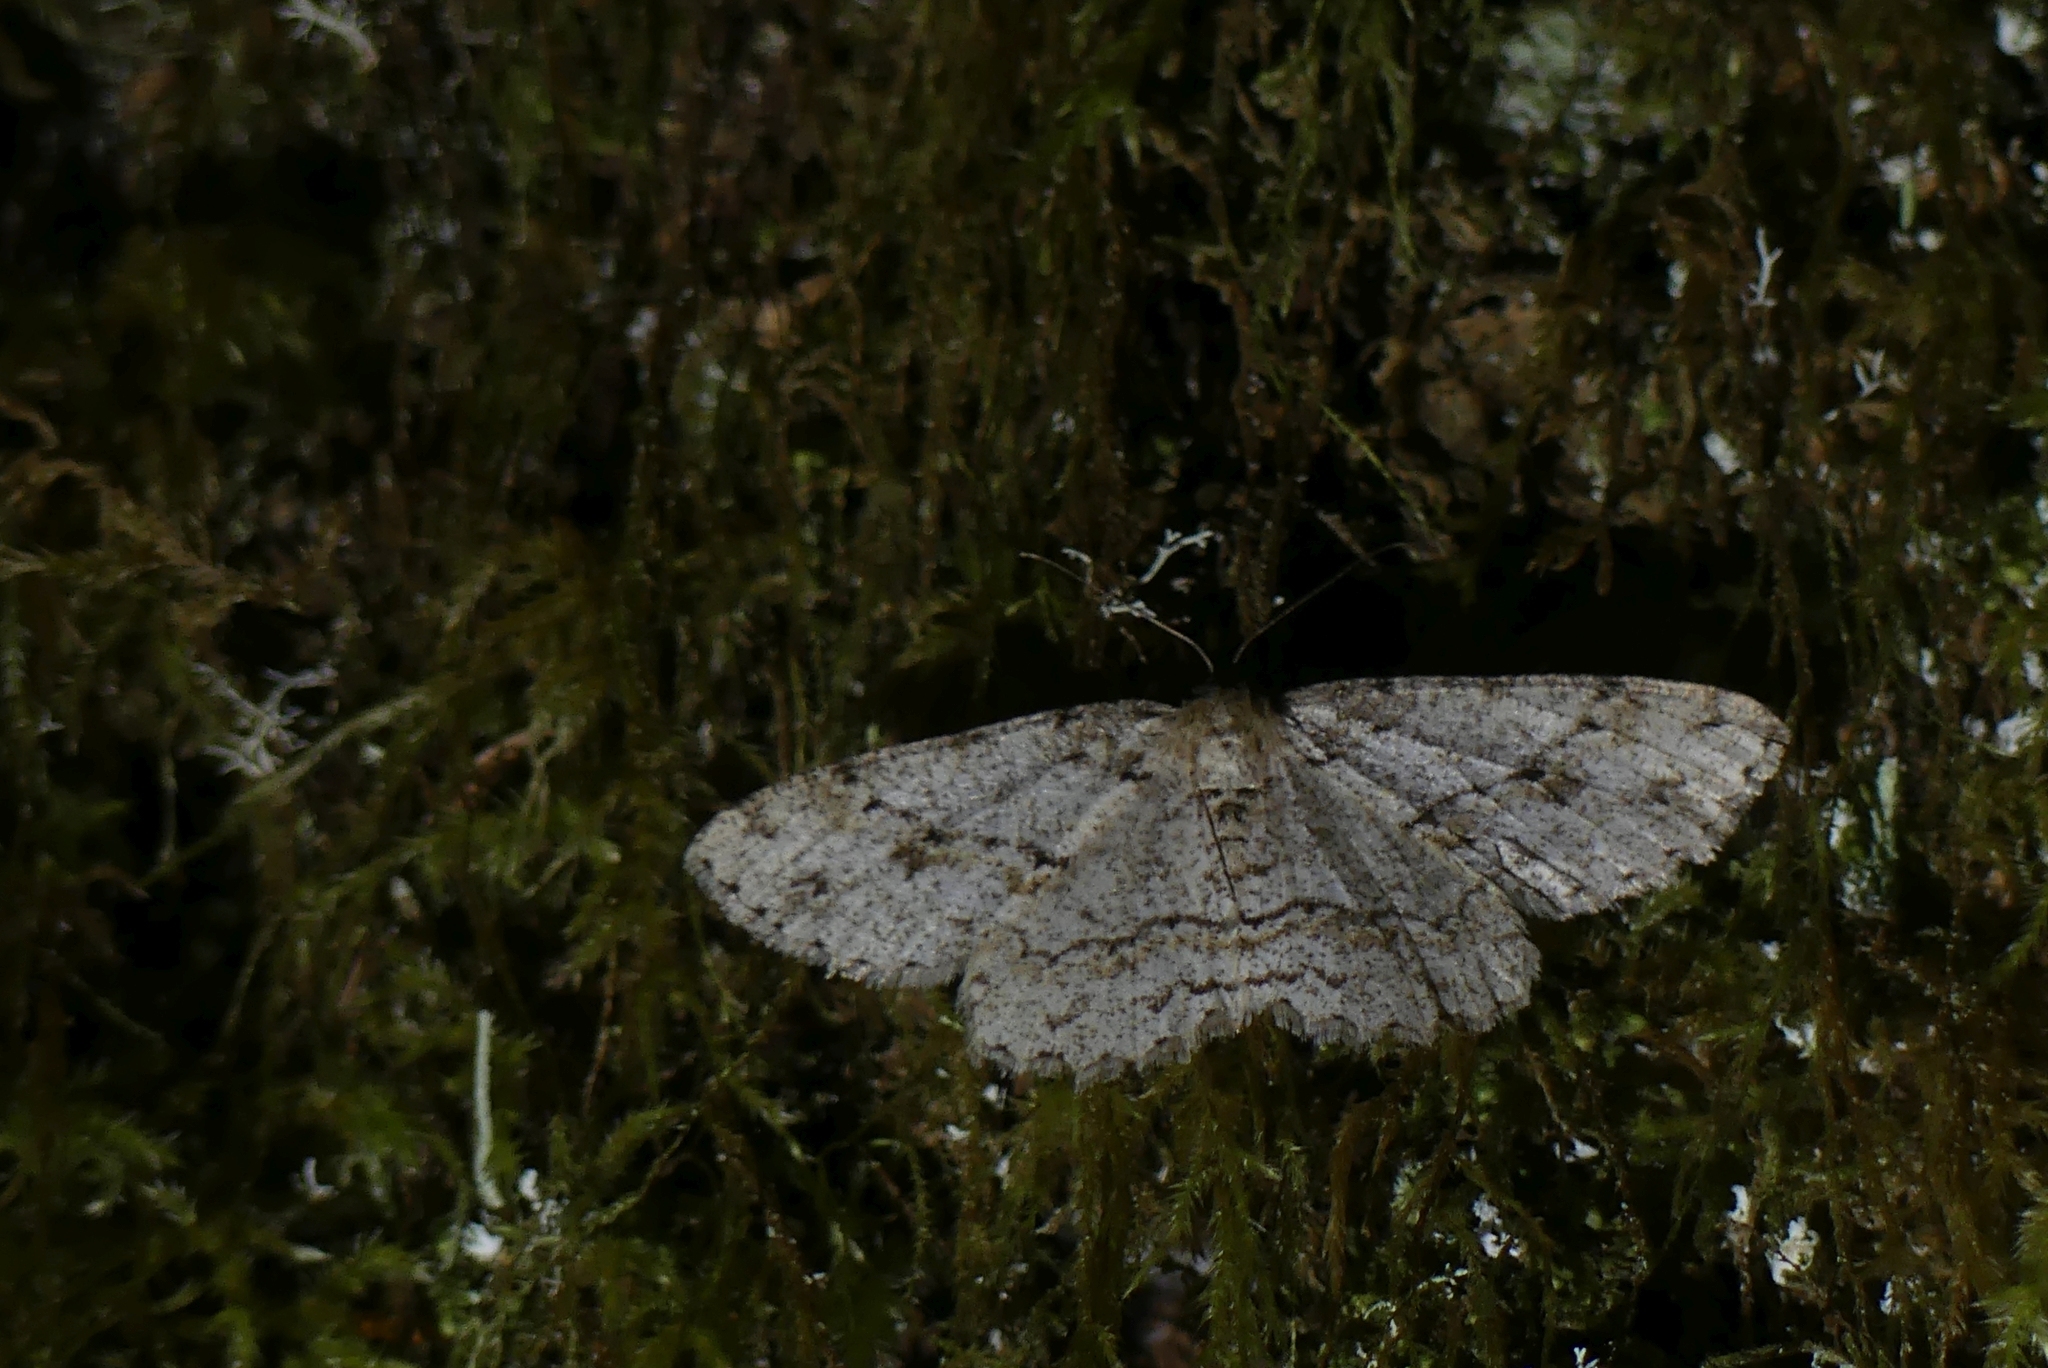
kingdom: Animalia
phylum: Arthropoda
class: Insecta
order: Lepidoptera
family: Geometridae
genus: Ectropis
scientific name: Ectropis crepuscularia
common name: Engrailed
